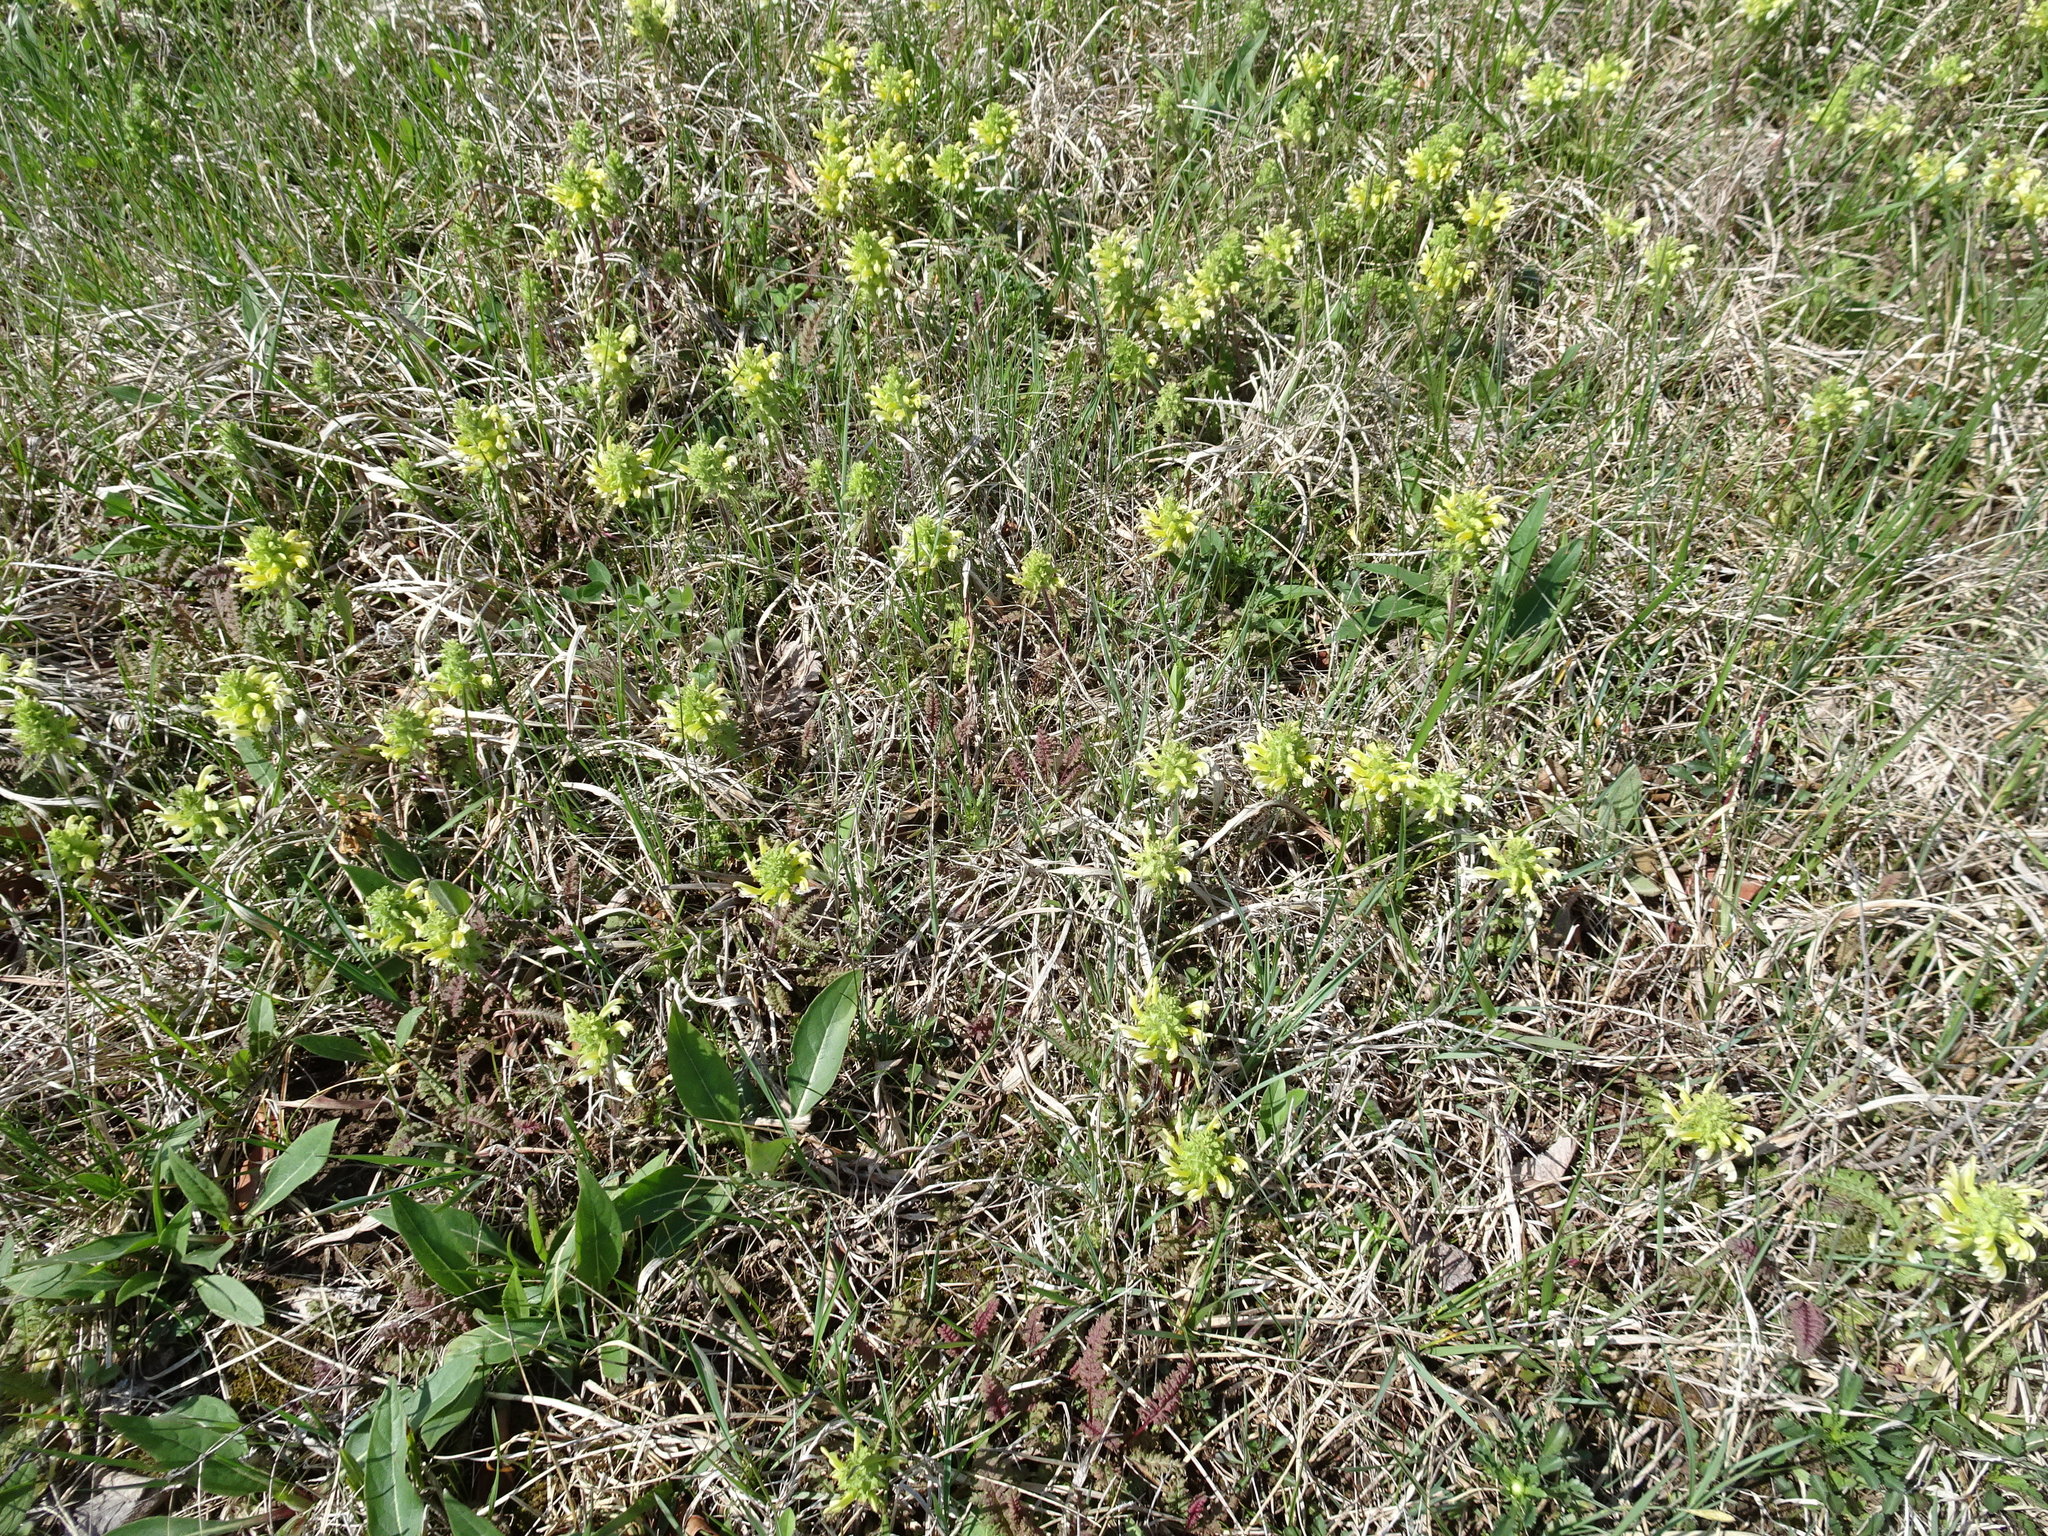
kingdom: Plantae
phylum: Tracheophyta
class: Magnoliopsida
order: Lamiales
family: Orobanchaceae
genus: Pedicularis
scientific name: Pedicularis canadensis
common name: Early lousewort
